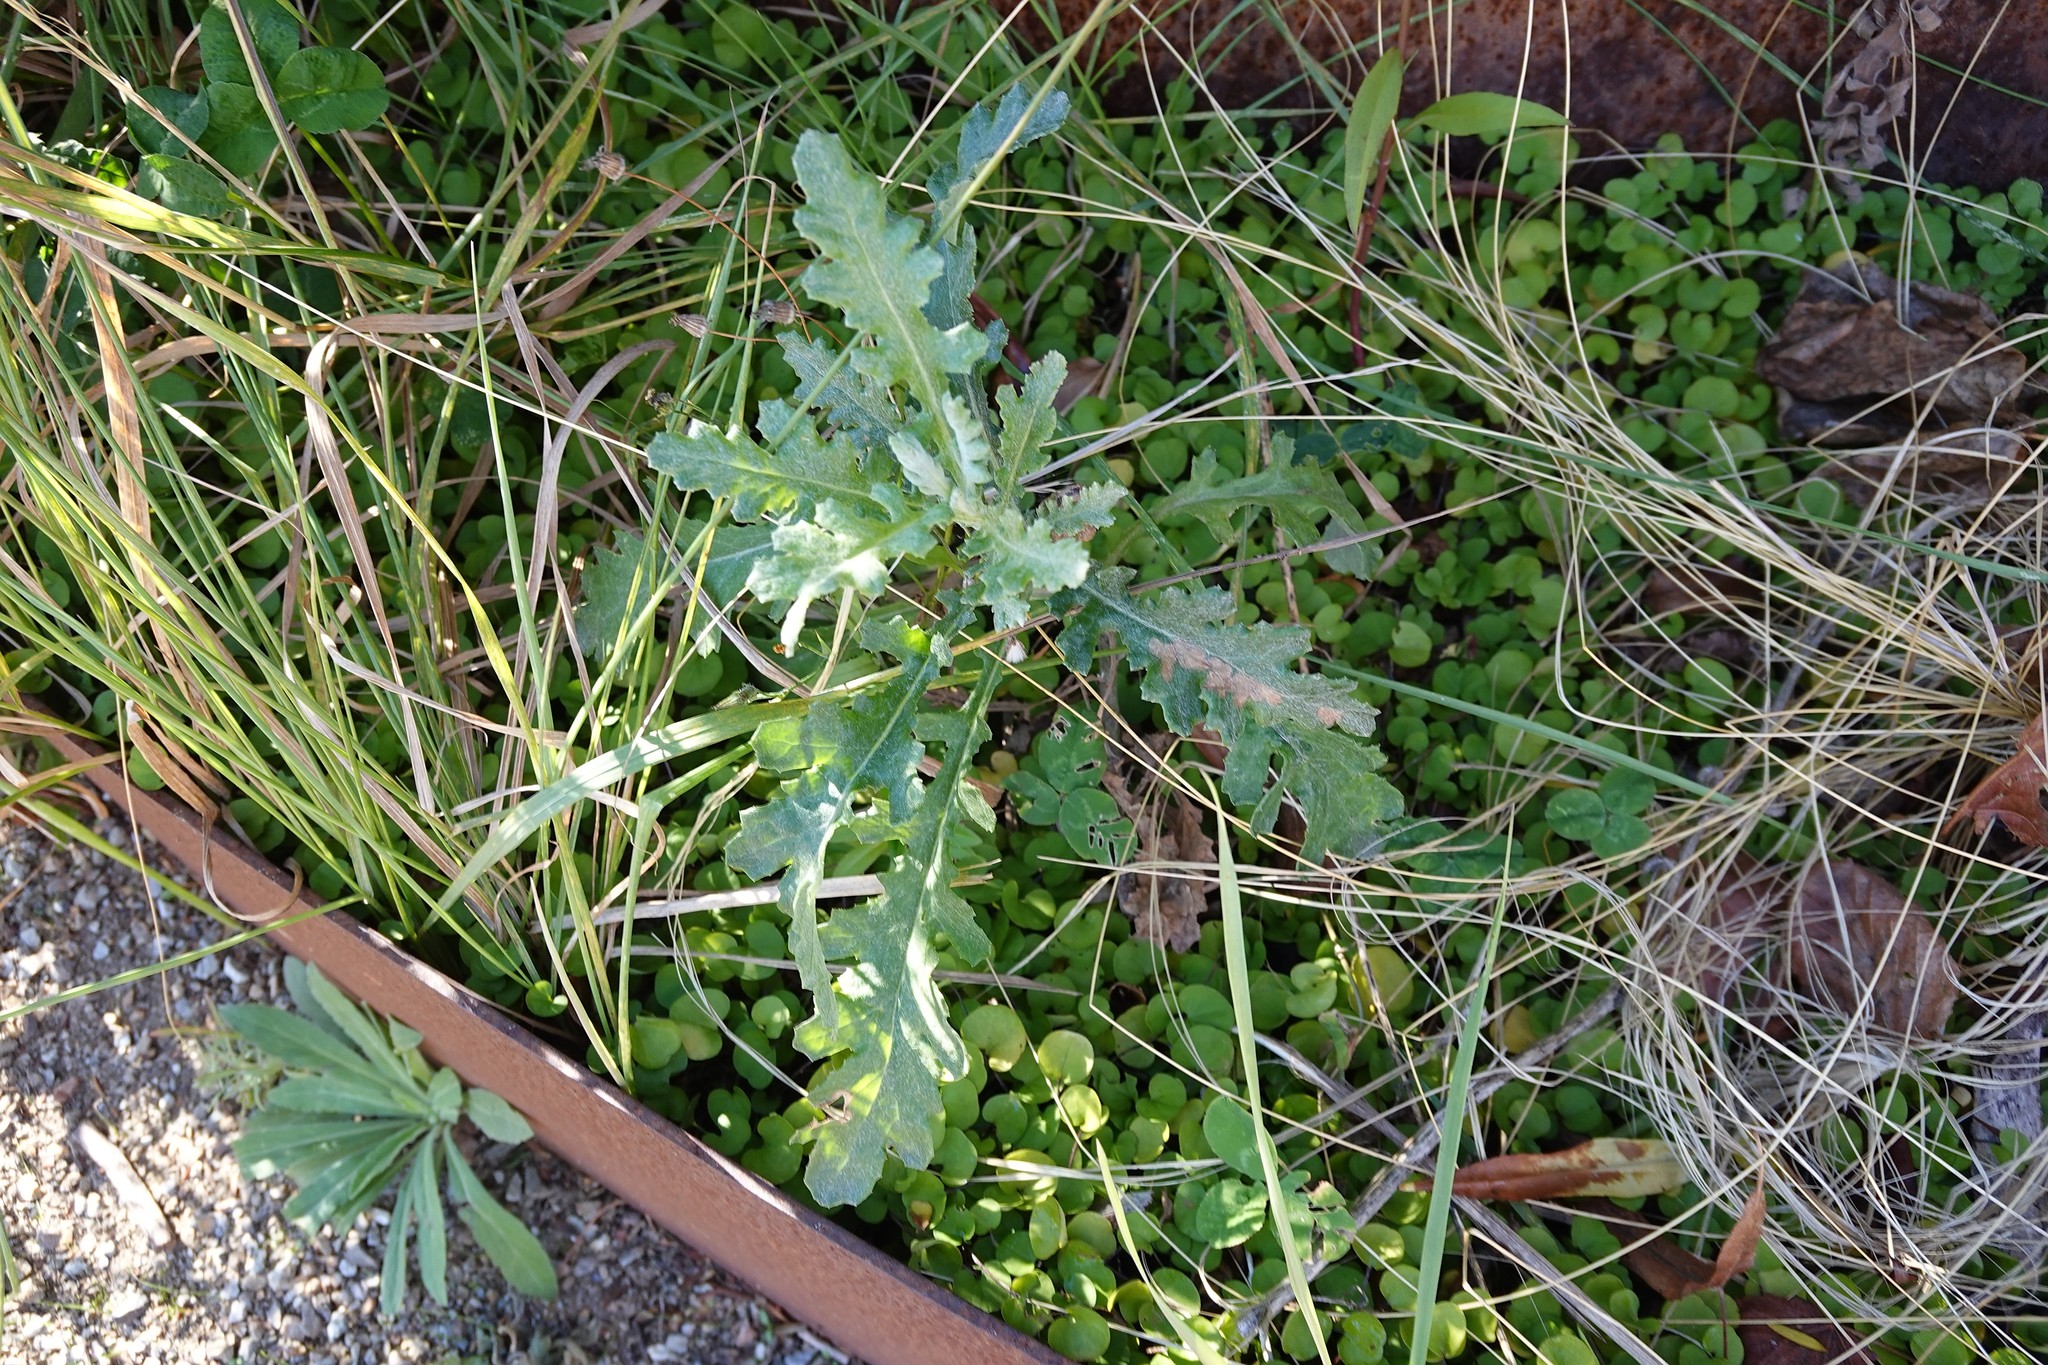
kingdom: Plantae
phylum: Tracheophyta
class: Magnoliopsida
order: Asterales
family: Asteraceae
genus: Senecio
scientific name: Senecio glomeratus
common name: Cutleaf burnweed
